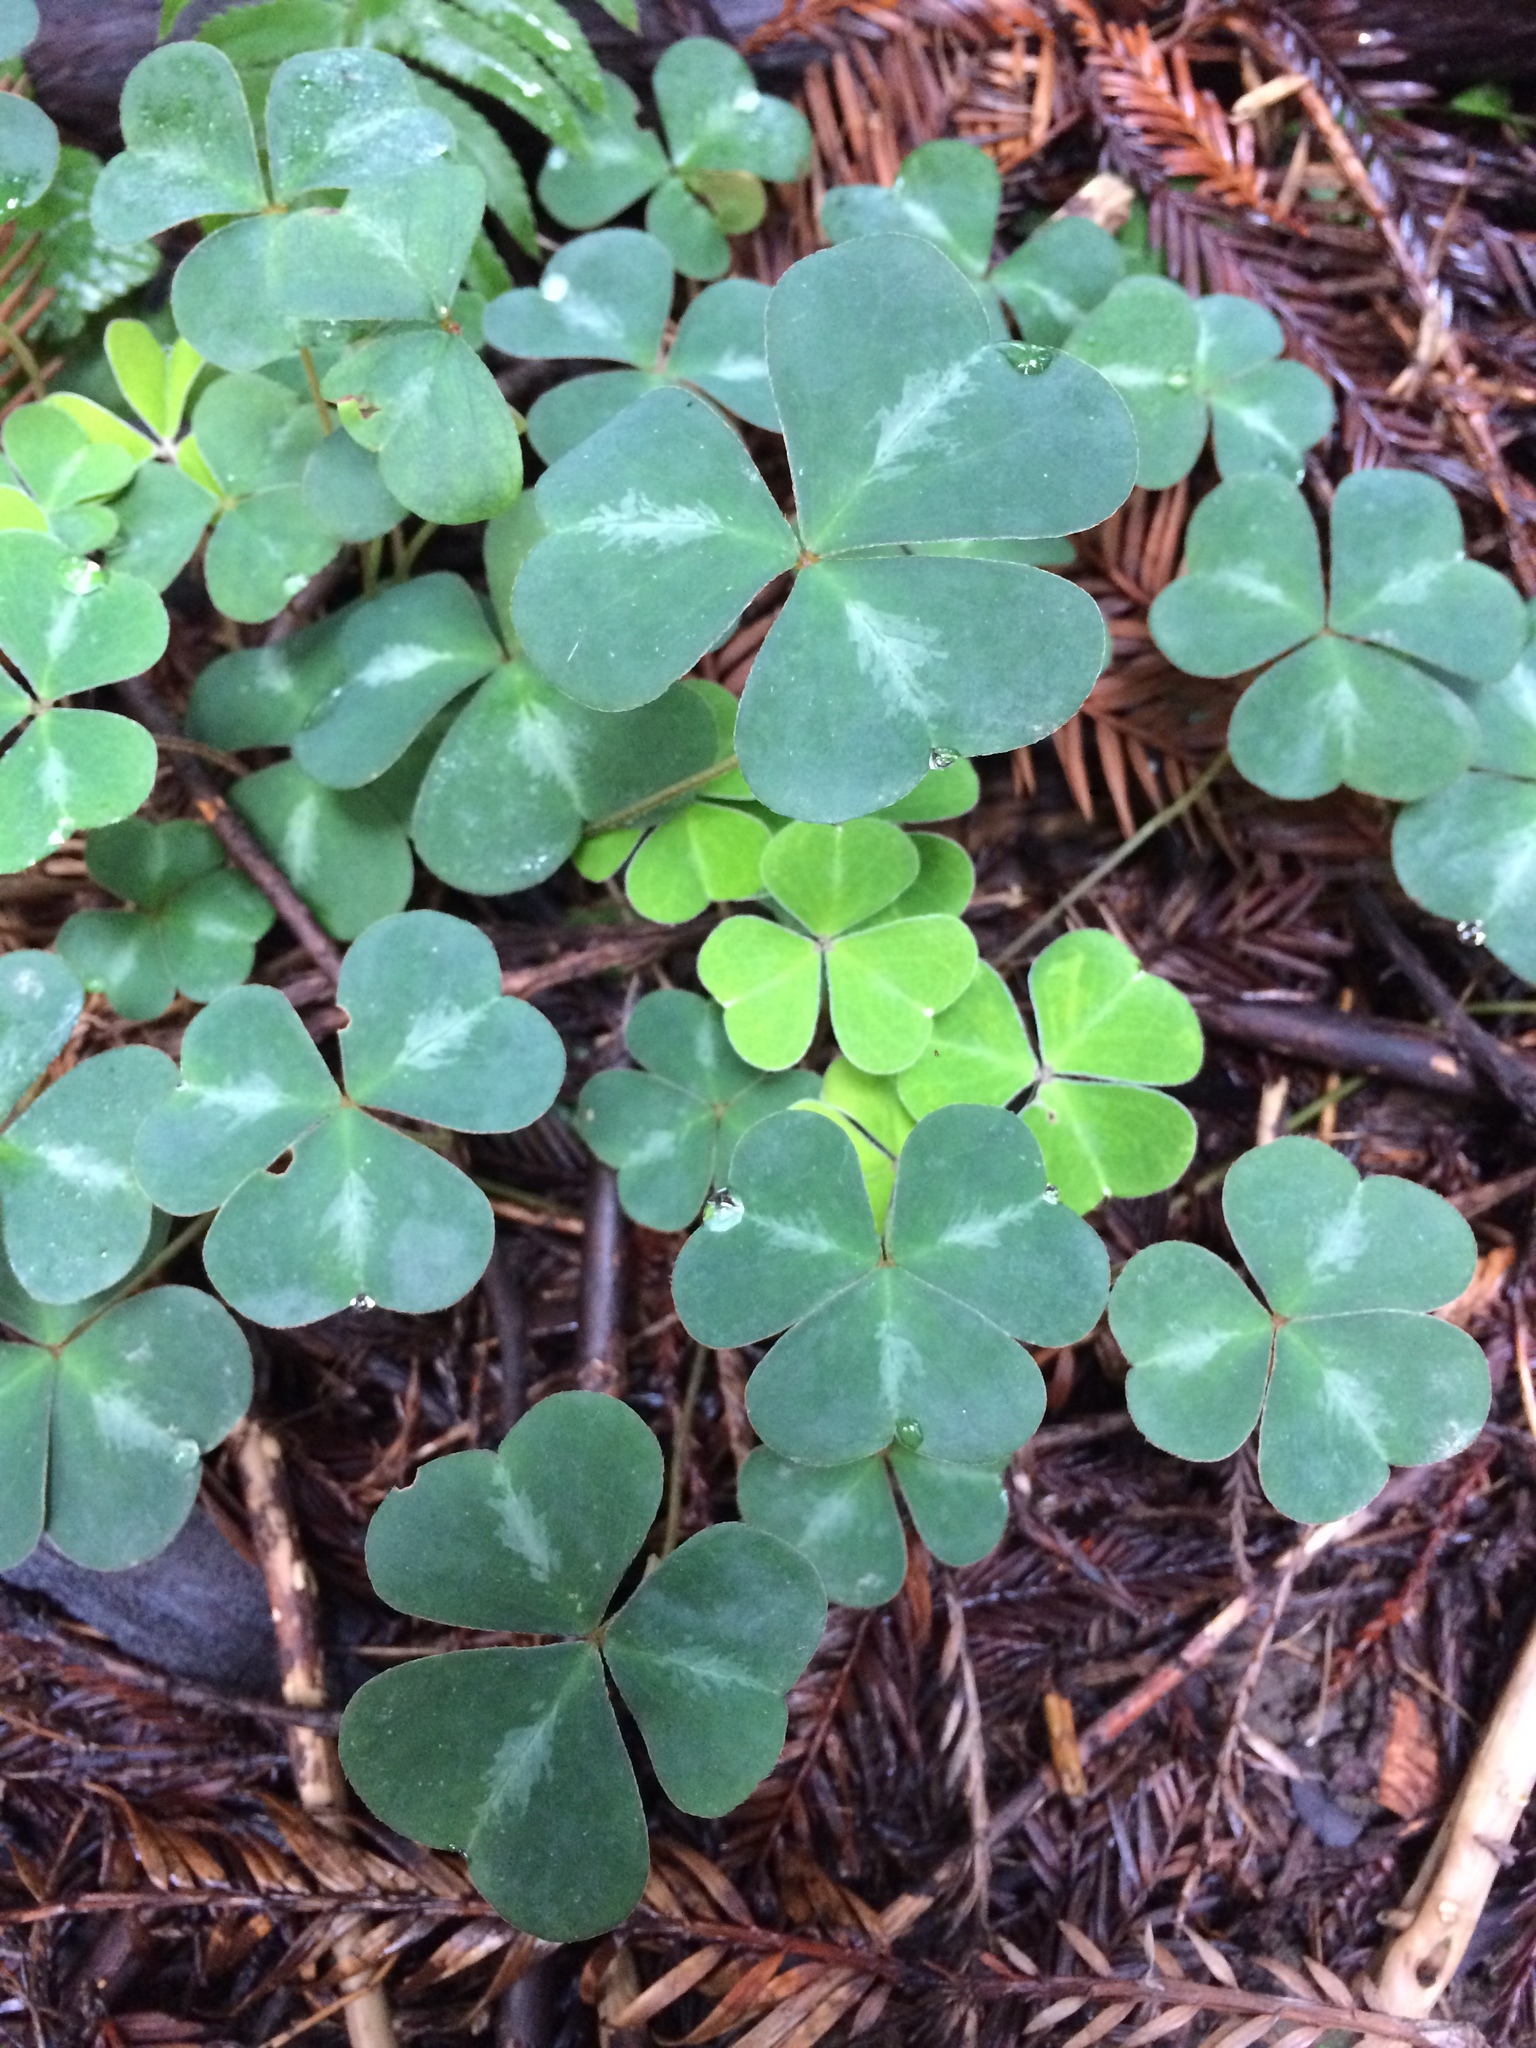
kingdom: Plantae
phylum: Tracheophyta
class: Magnoliopsida
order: Oxalidales
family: Oxalidaceae
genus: Oxalis
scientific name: Oxalis oregana
